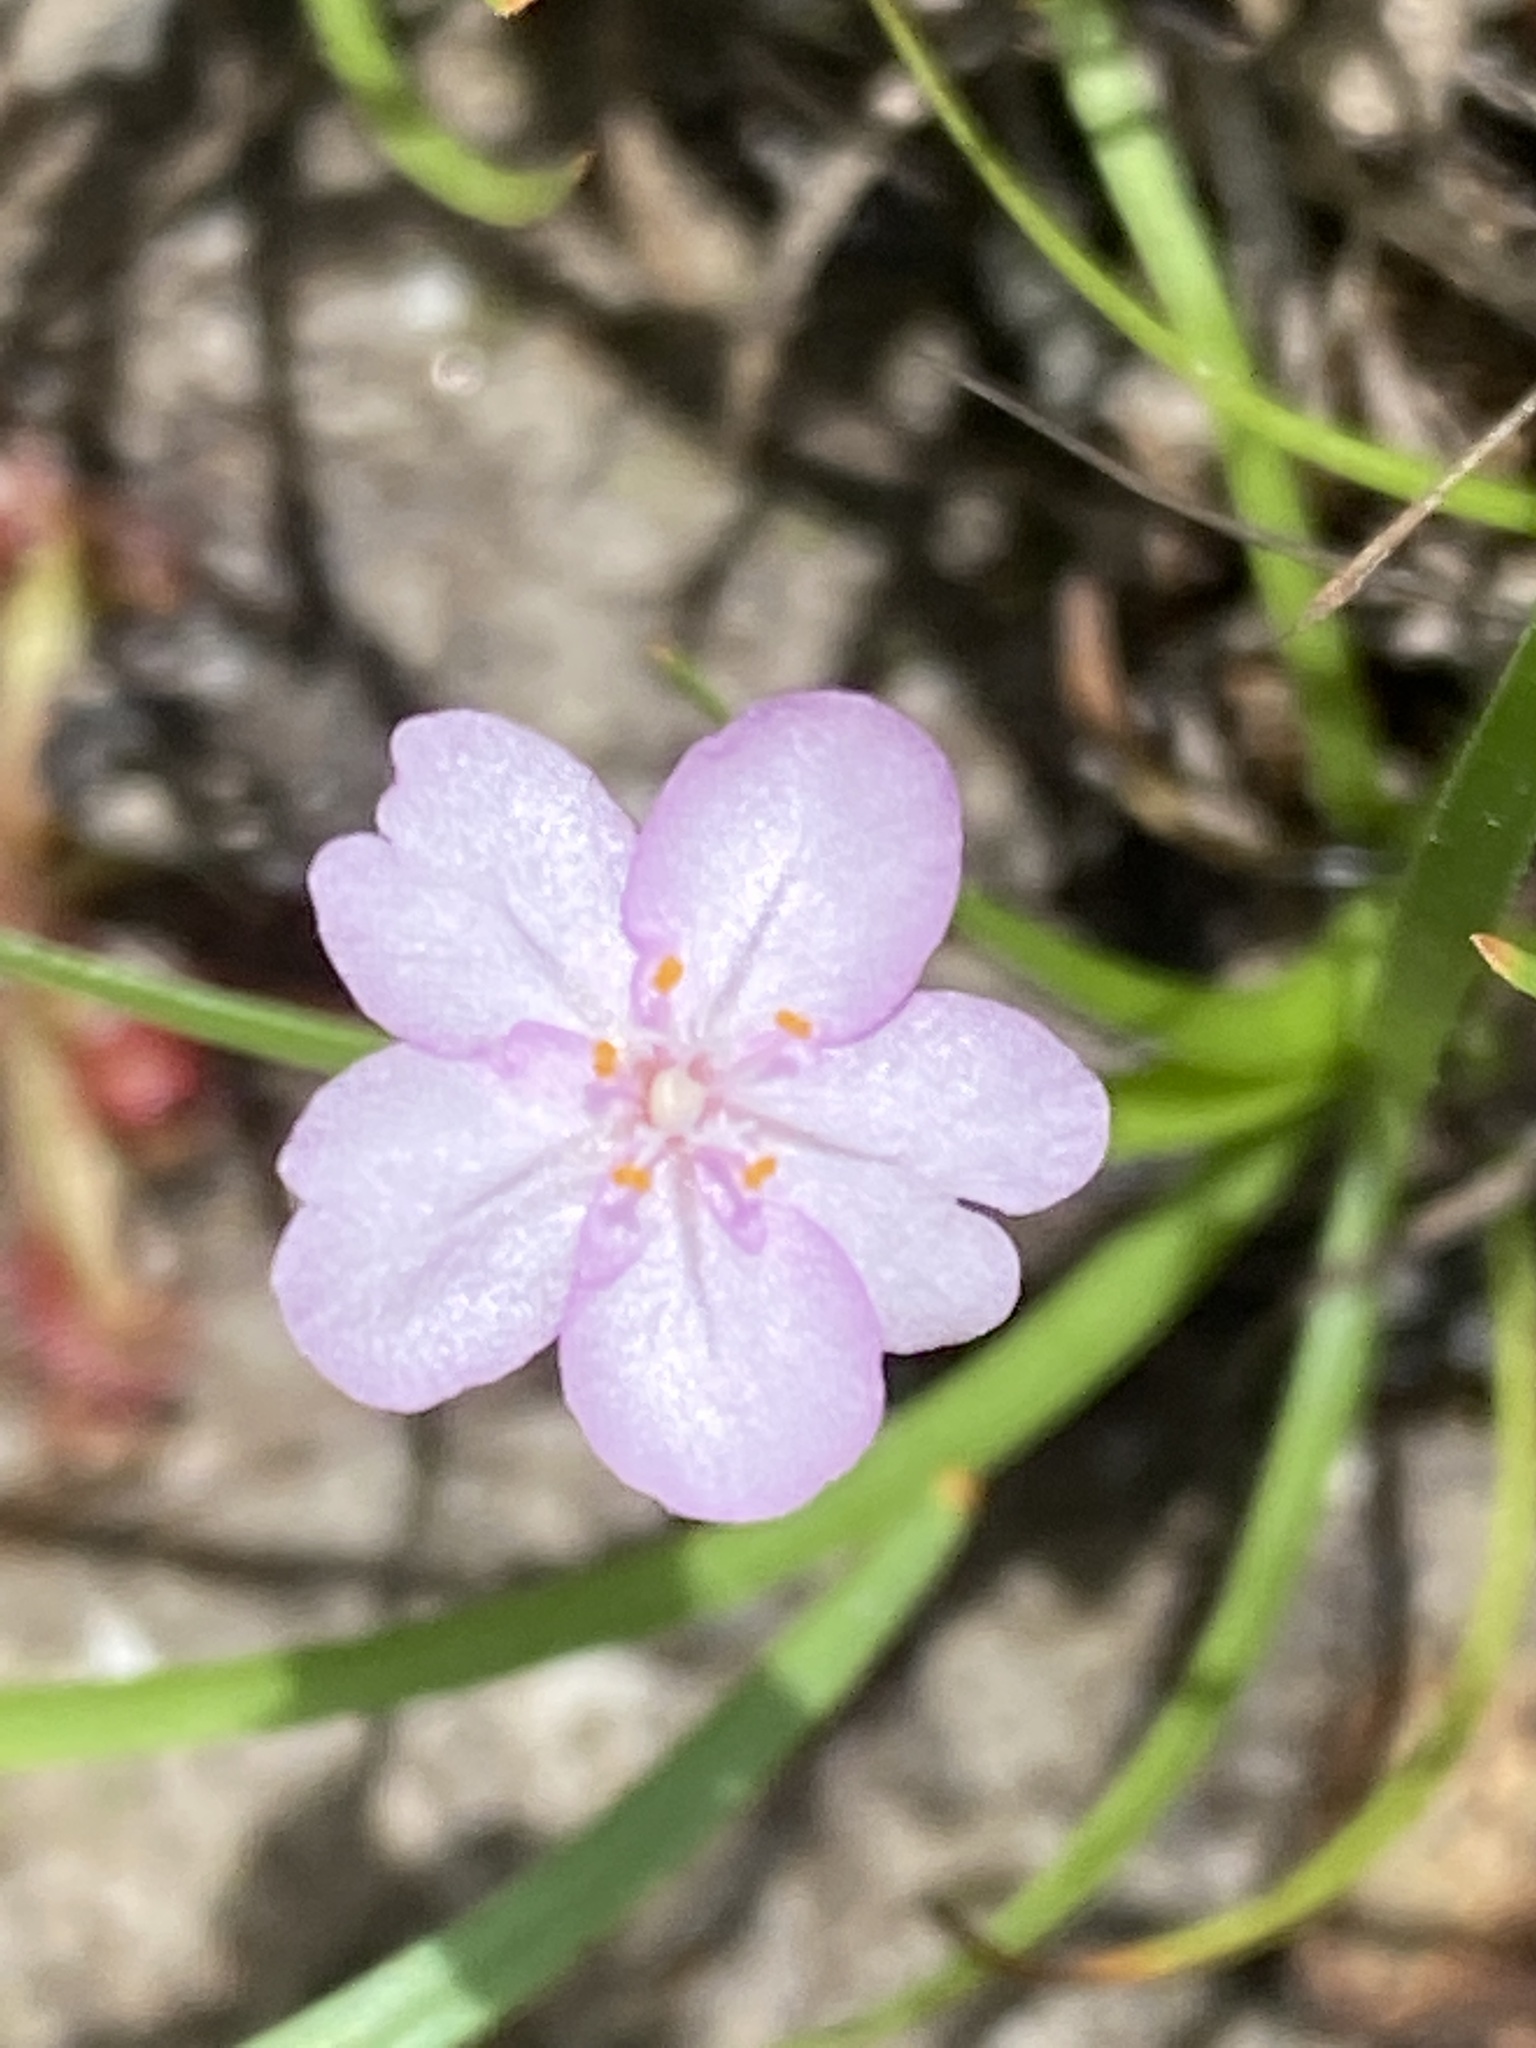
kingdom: Plantae
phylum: Tracheophyta
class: Magnoliopsida
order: Caryophyllales
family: Droseraceae
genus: Drosera
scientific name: Drosera petiolaris
